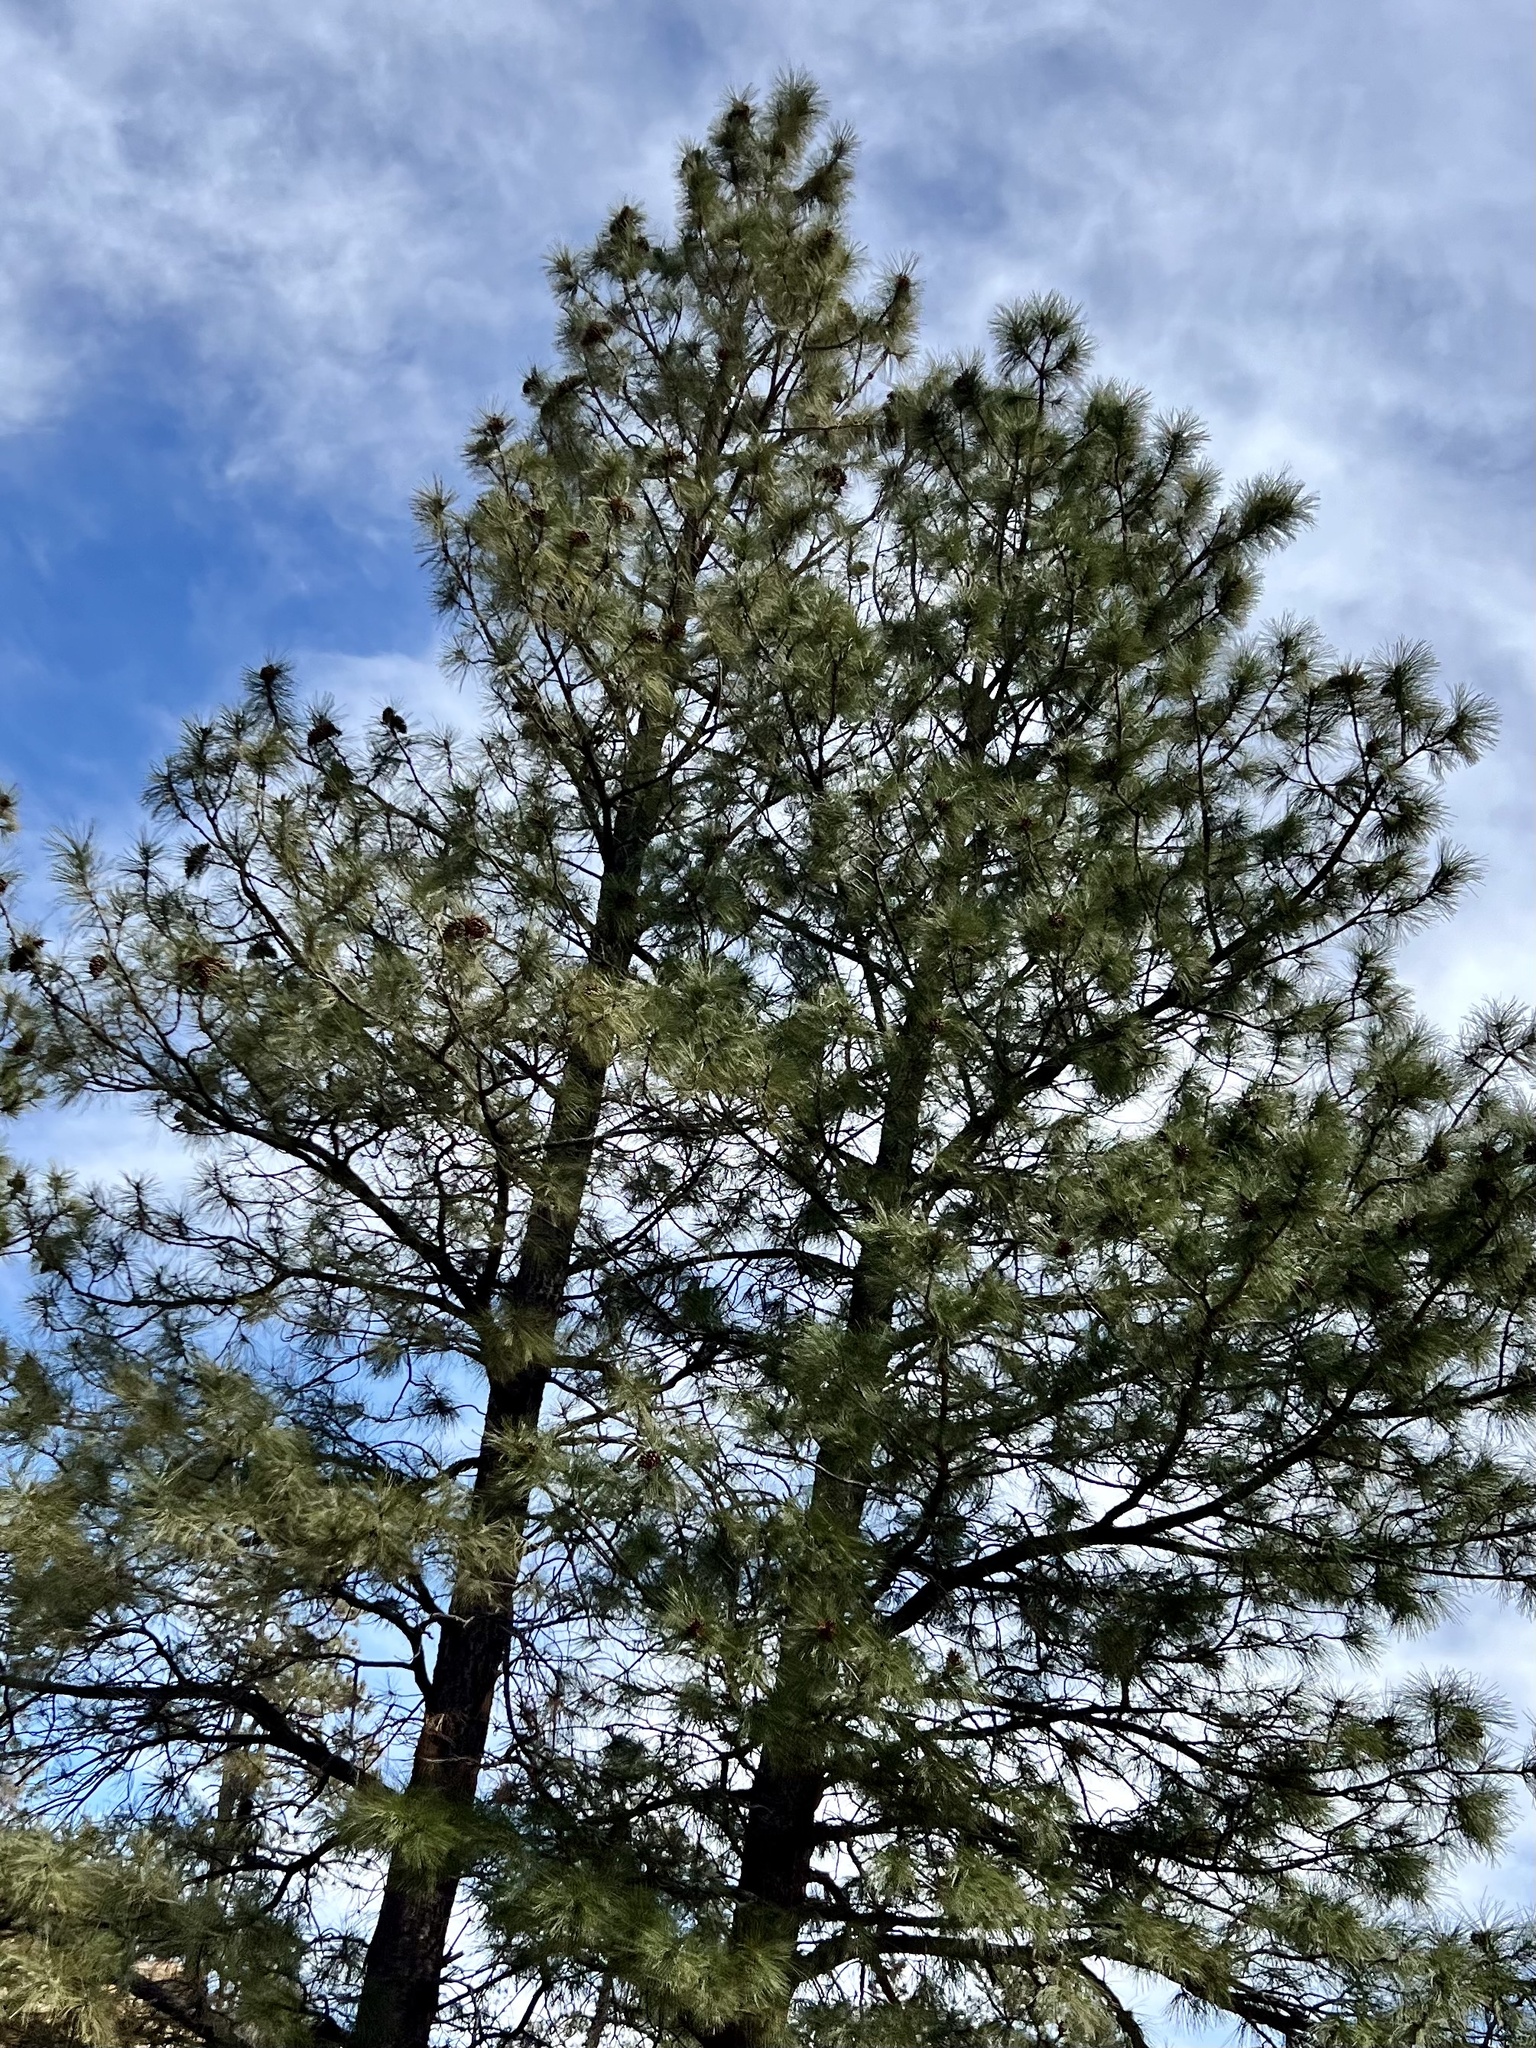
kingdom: Plantae
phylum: Tracheophyta
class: Pinopsida
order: Pinales
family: Pinaceae
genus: Pinus
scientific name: Pinus ponderosa
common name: Western yellow-pine
